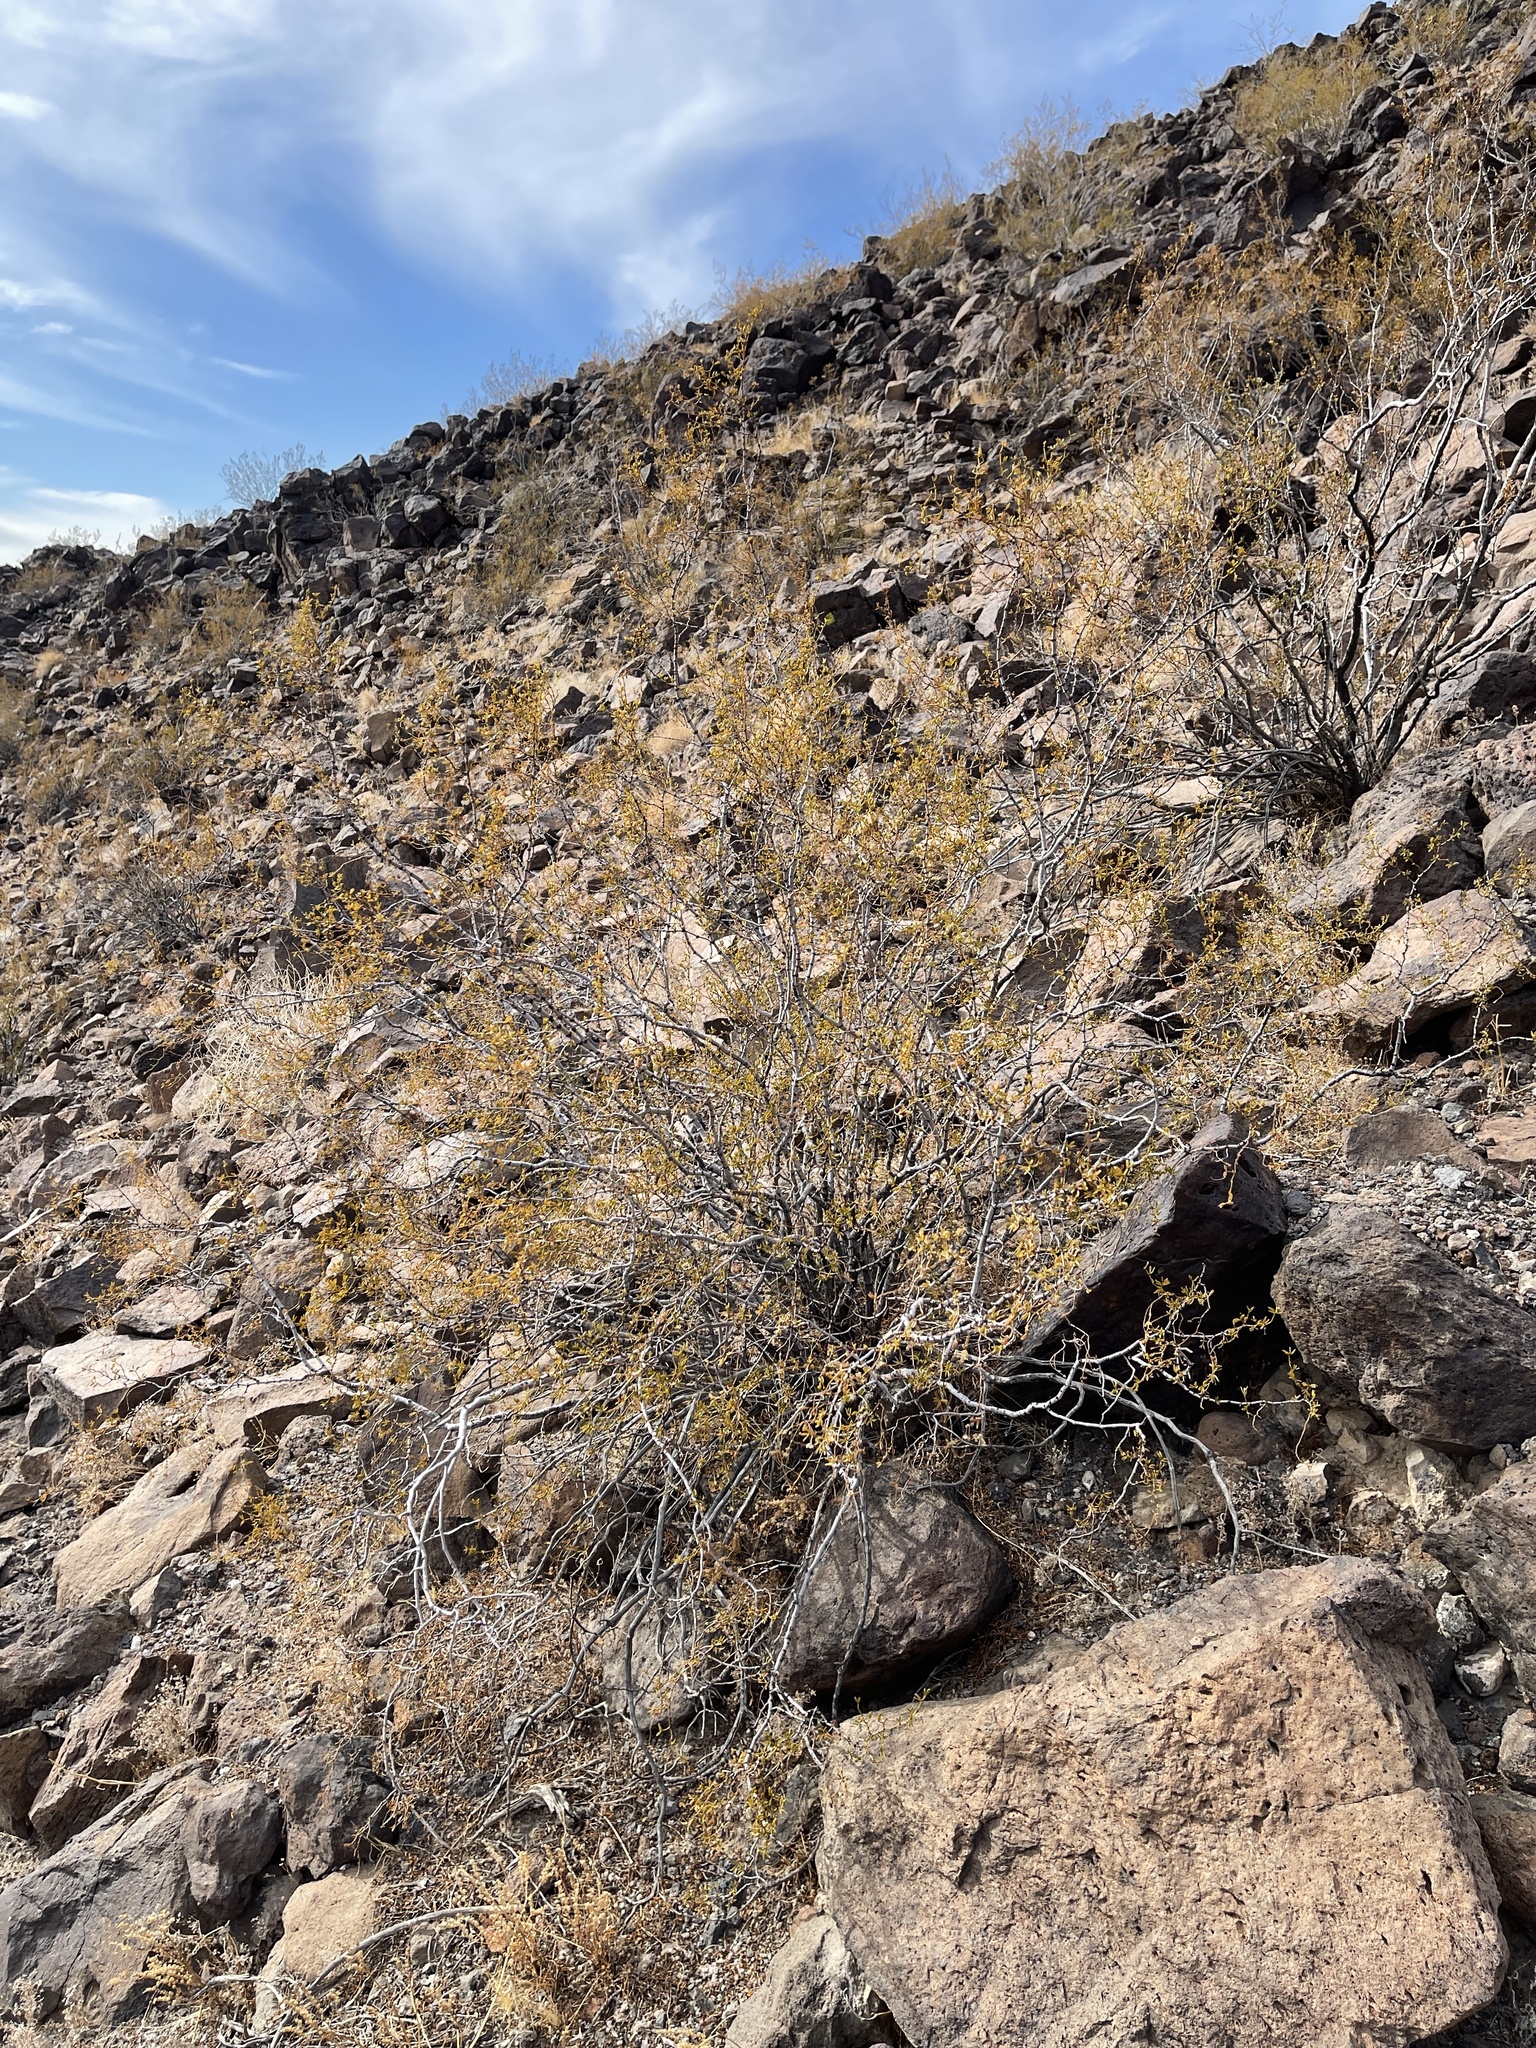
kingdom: Plantae
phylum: Tracheophyta
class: Magnoliopsida
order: Zygophyllales
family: Zygophyllaceae
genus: Larrea
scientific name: Larrea tridentata
